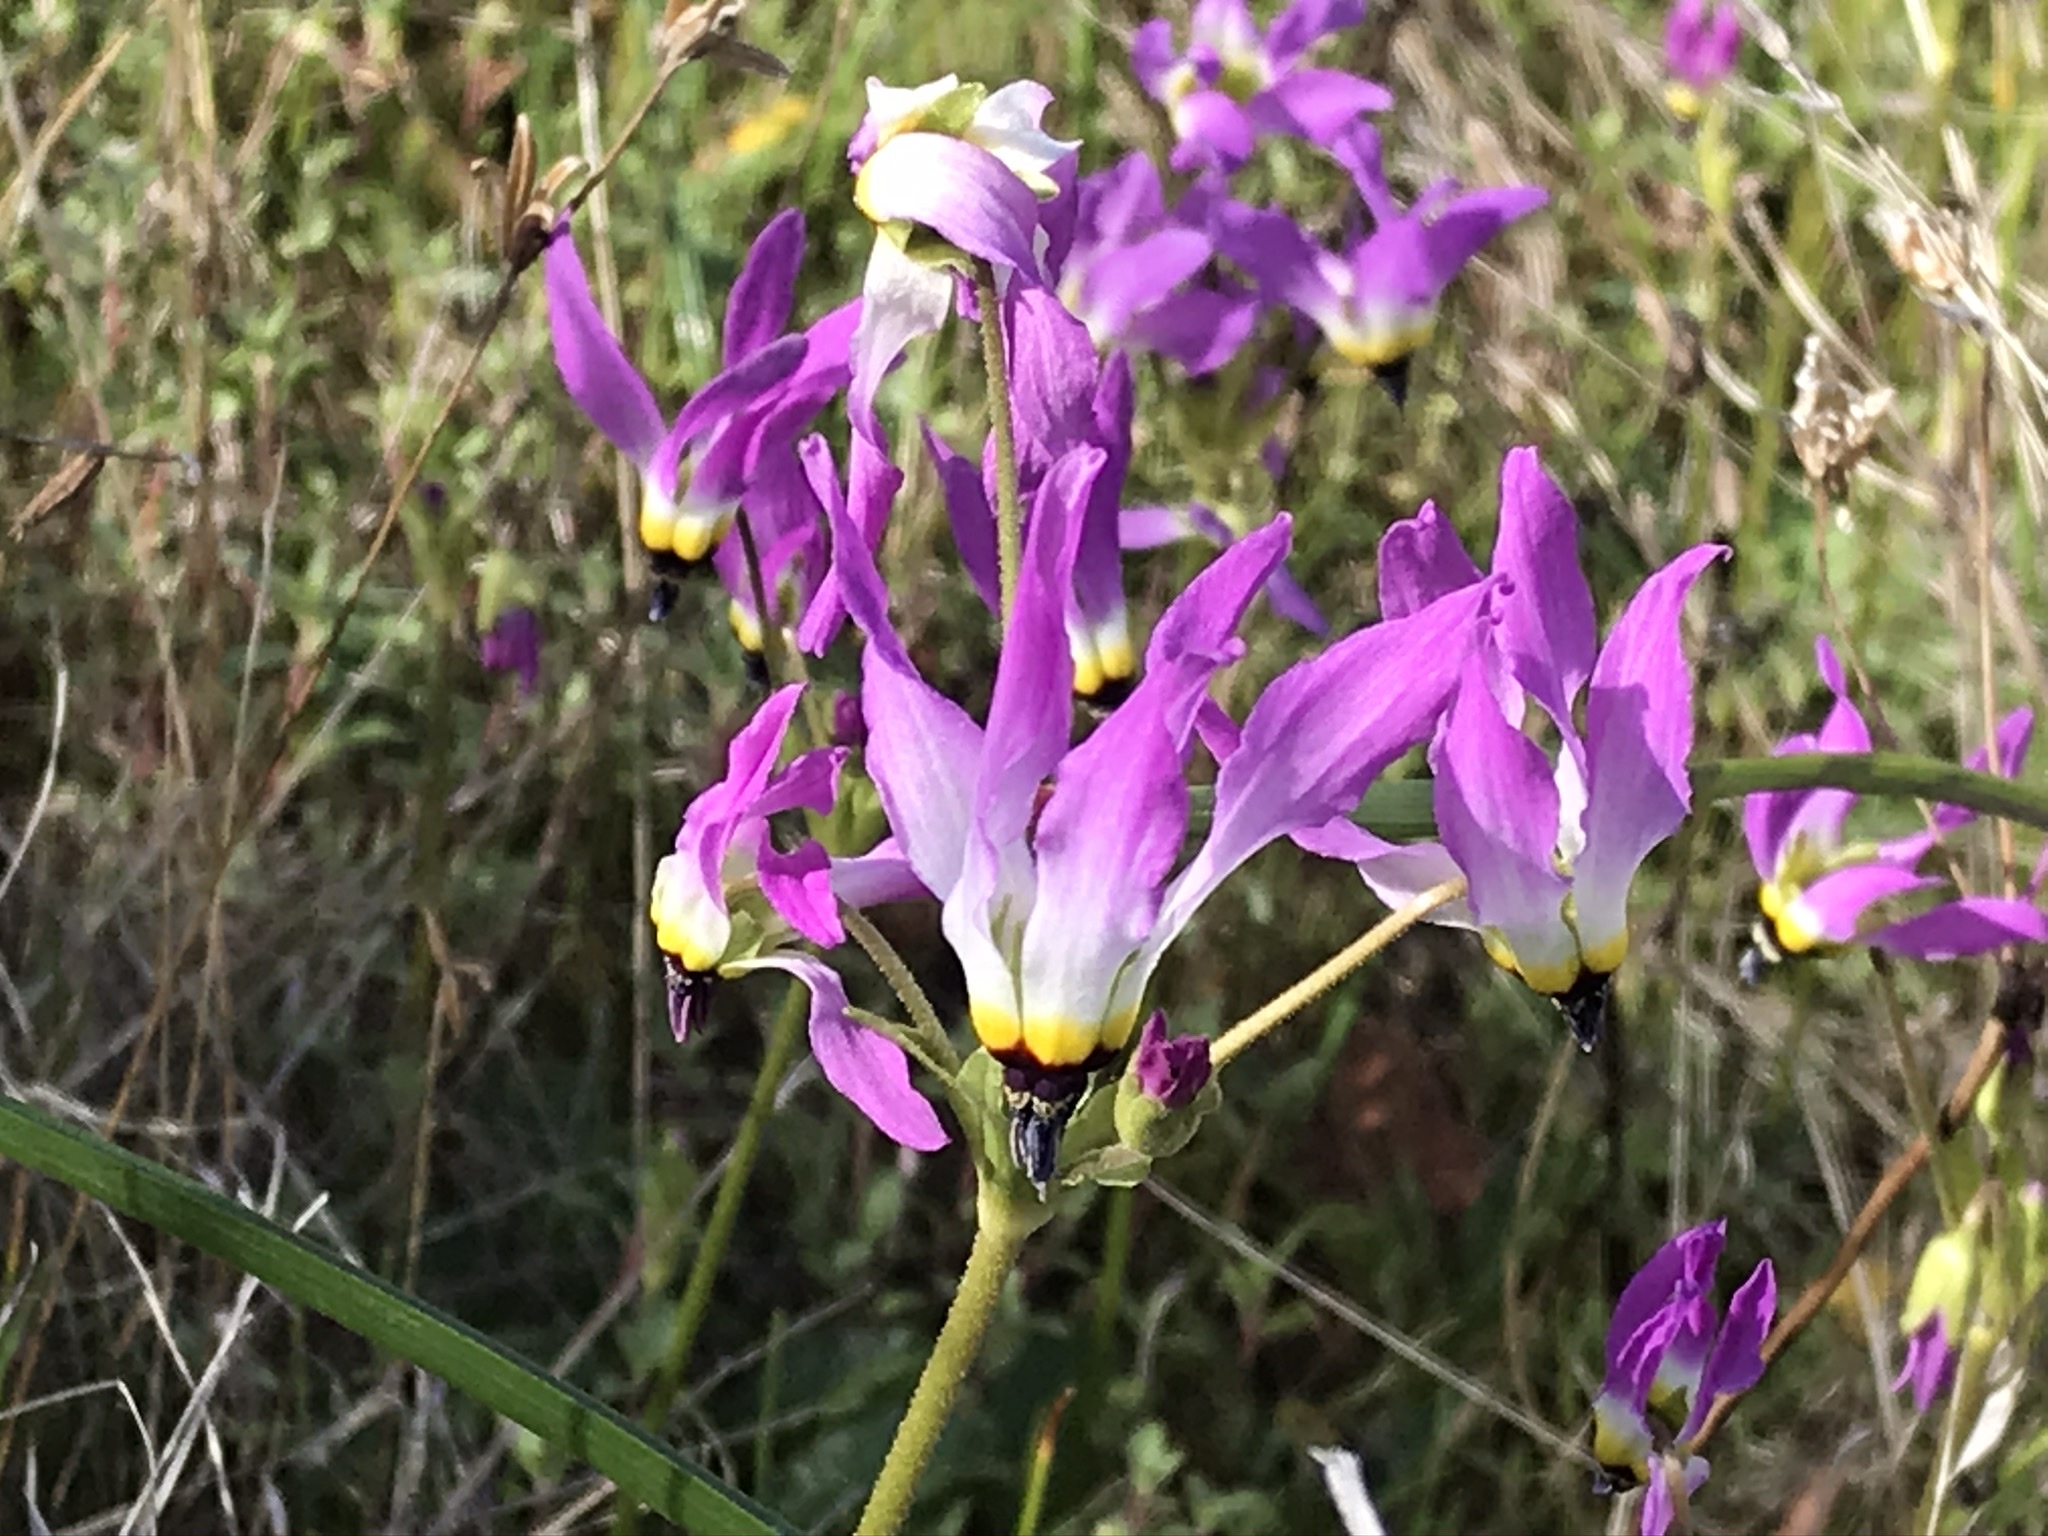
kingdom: Plantae
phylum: Tracheophyta
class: Magnoliopsida
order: Ericales
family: Primulaceae
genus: Dodecatheon
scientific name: Dodecatheon clevelandii
